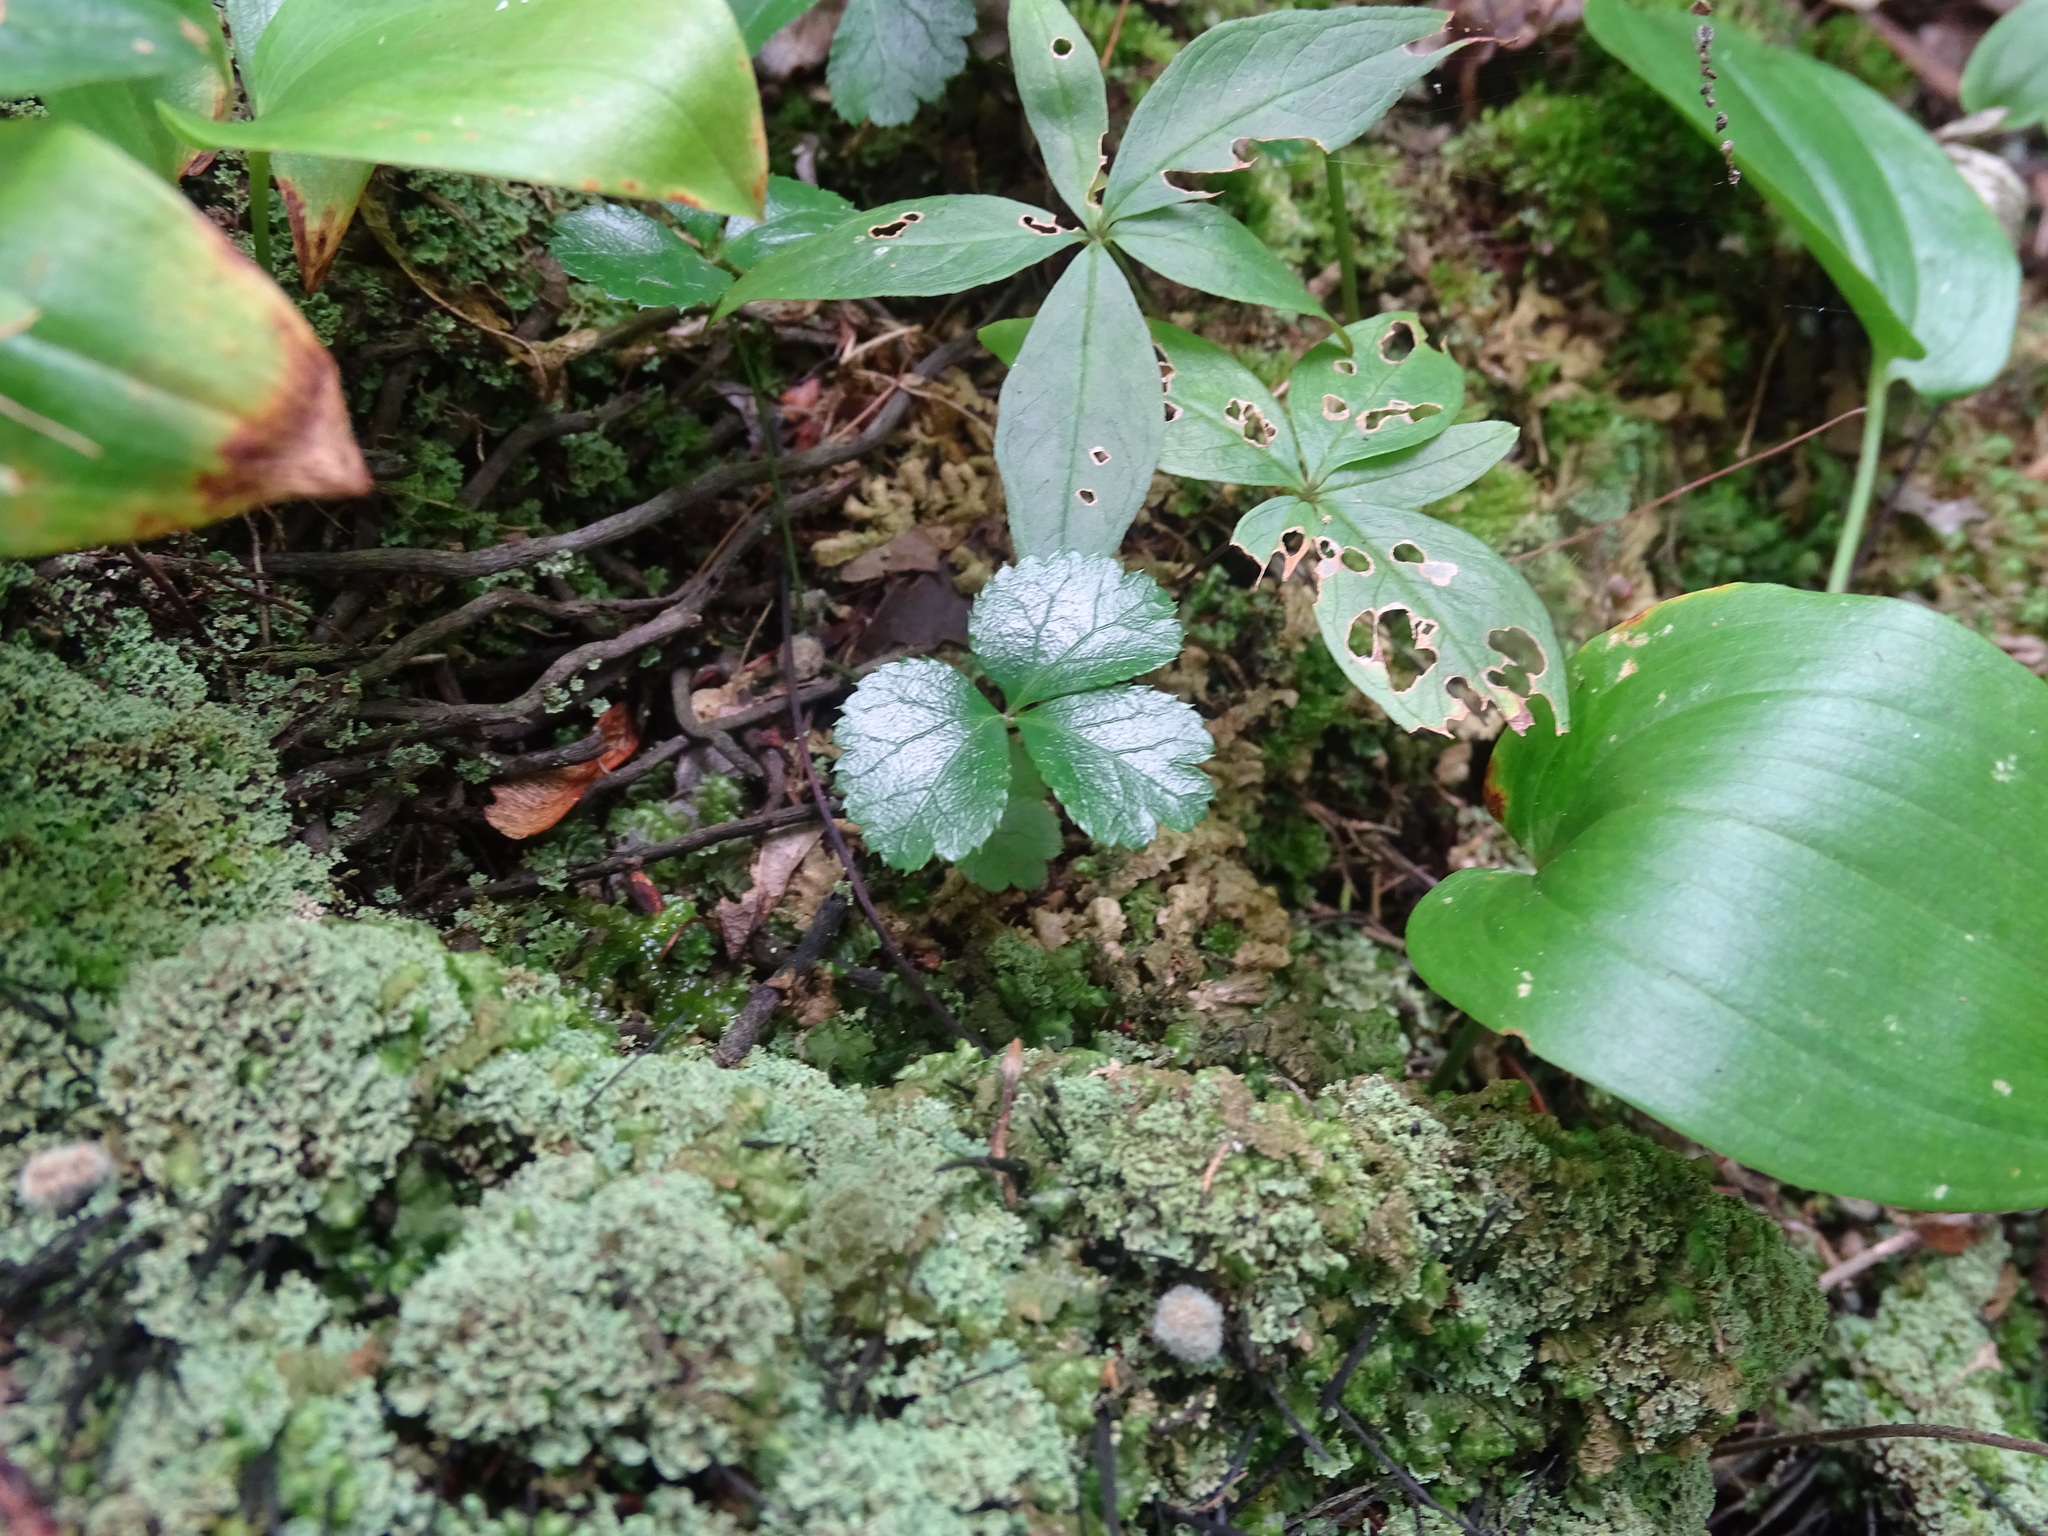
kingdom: Plantae
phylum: Tracheophyta
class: Magnoliopsida
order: Ranunculales
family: Ranunculaceae
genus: Coptis
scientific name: Coptis trifolia
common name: Canker-root
